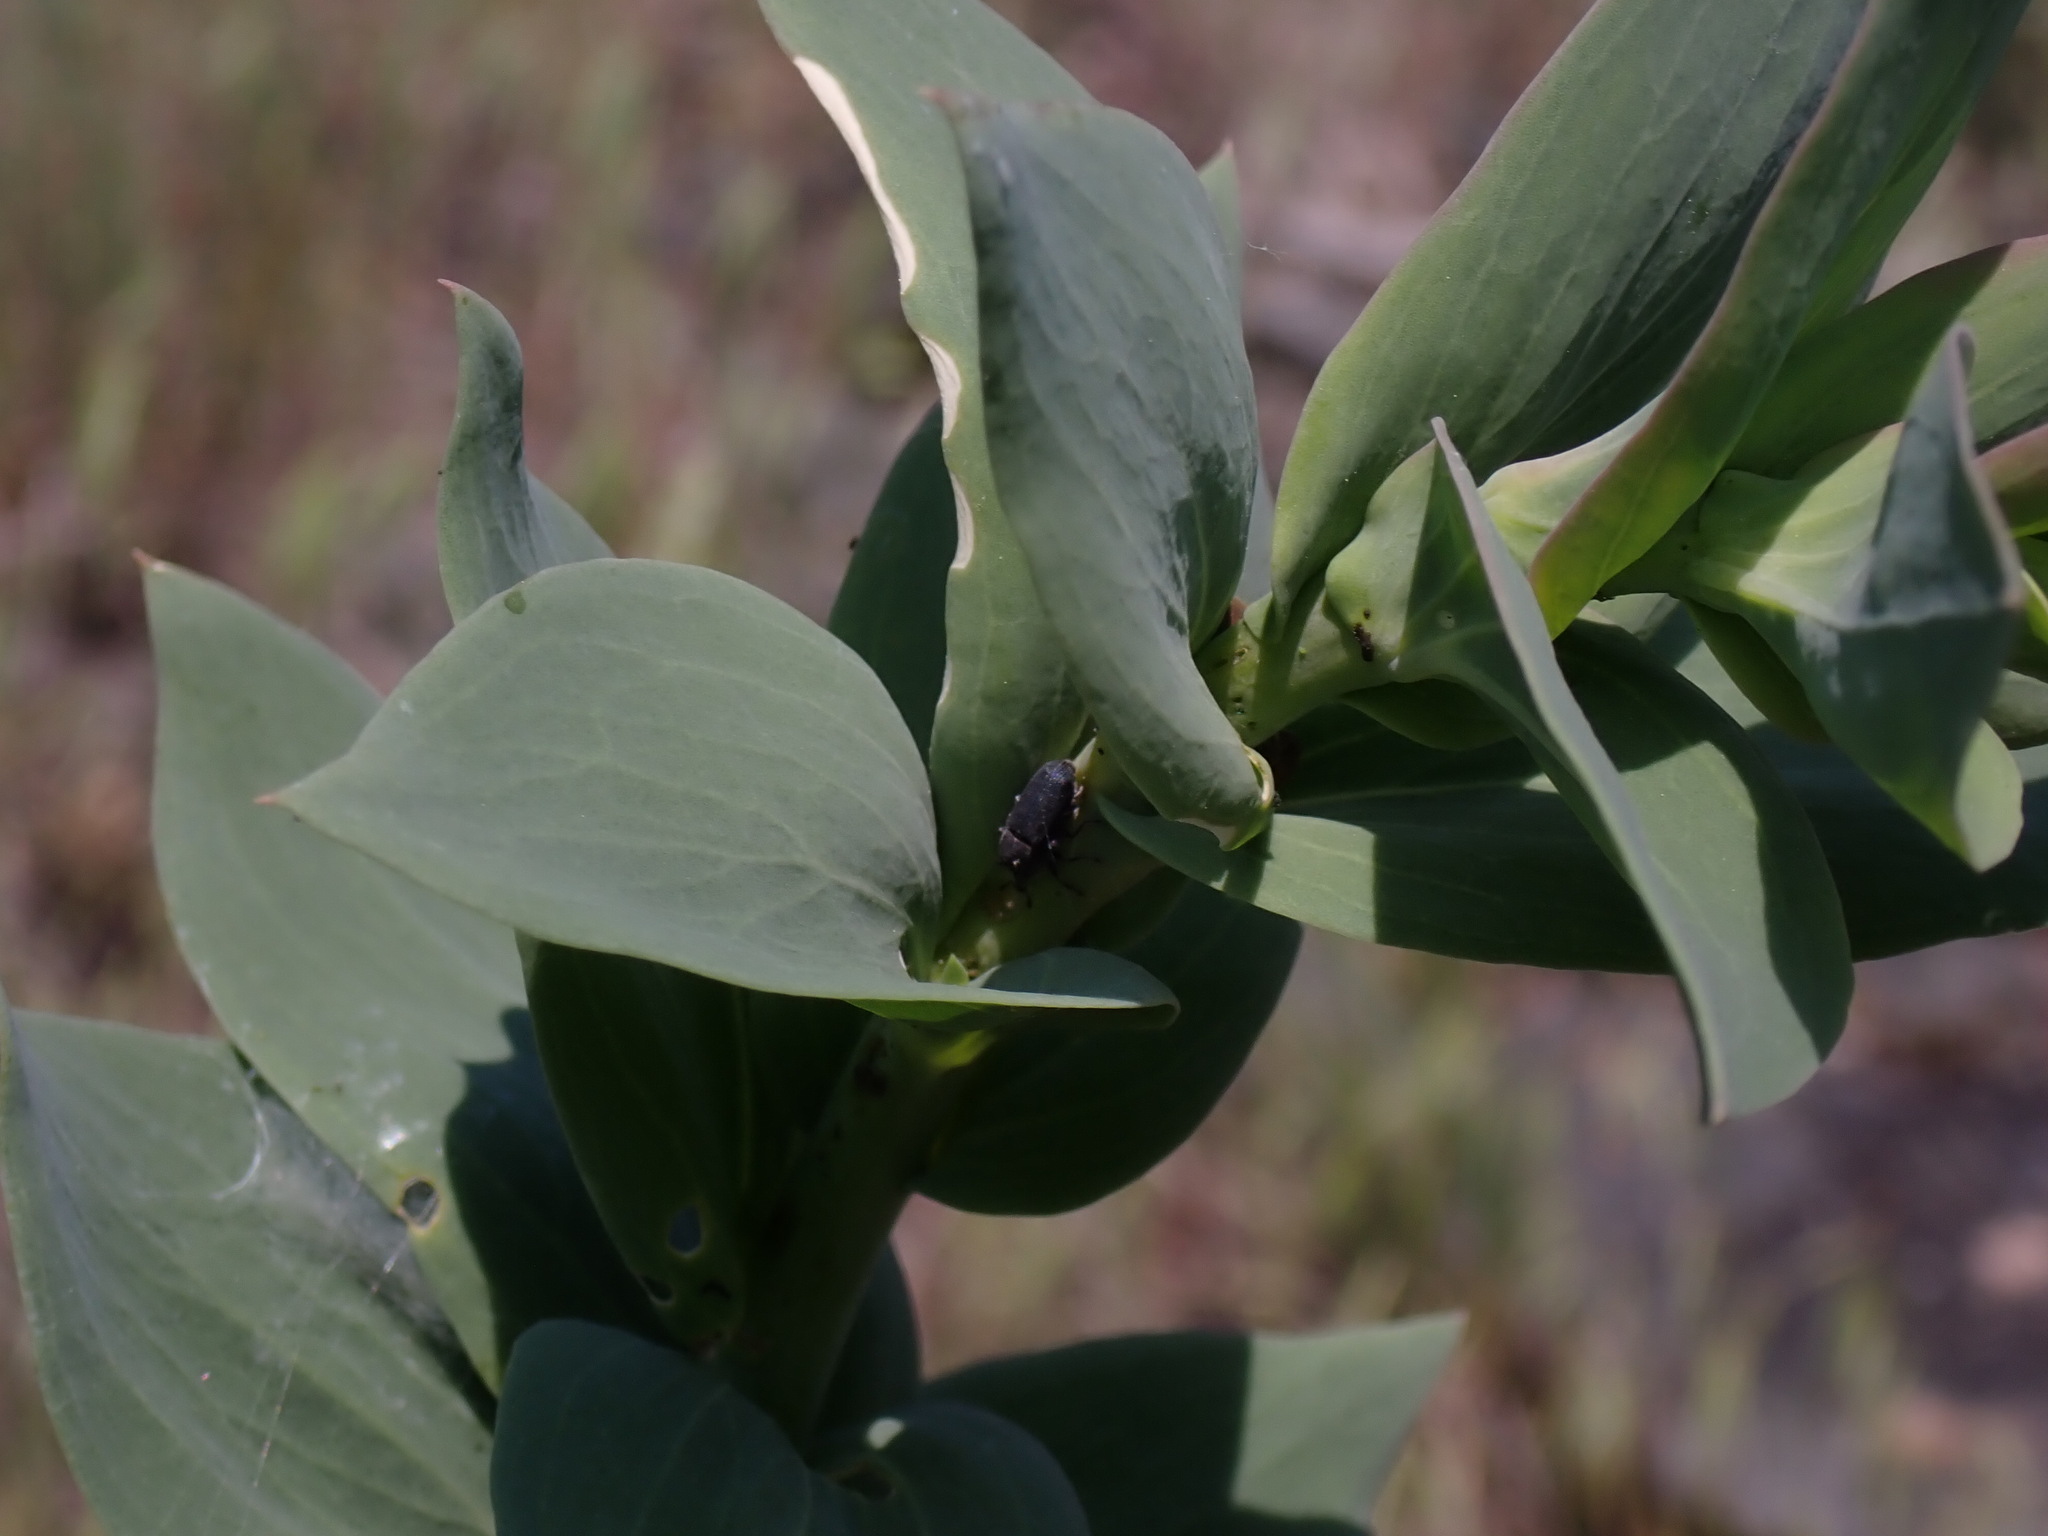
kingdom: Plantae
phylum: Tracheophyta
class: Magnoliopsida
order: Lamiales
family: Plantaginaceae
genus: Linaria
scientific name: Linaria dalmatica
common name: Dalmatian toadflax
